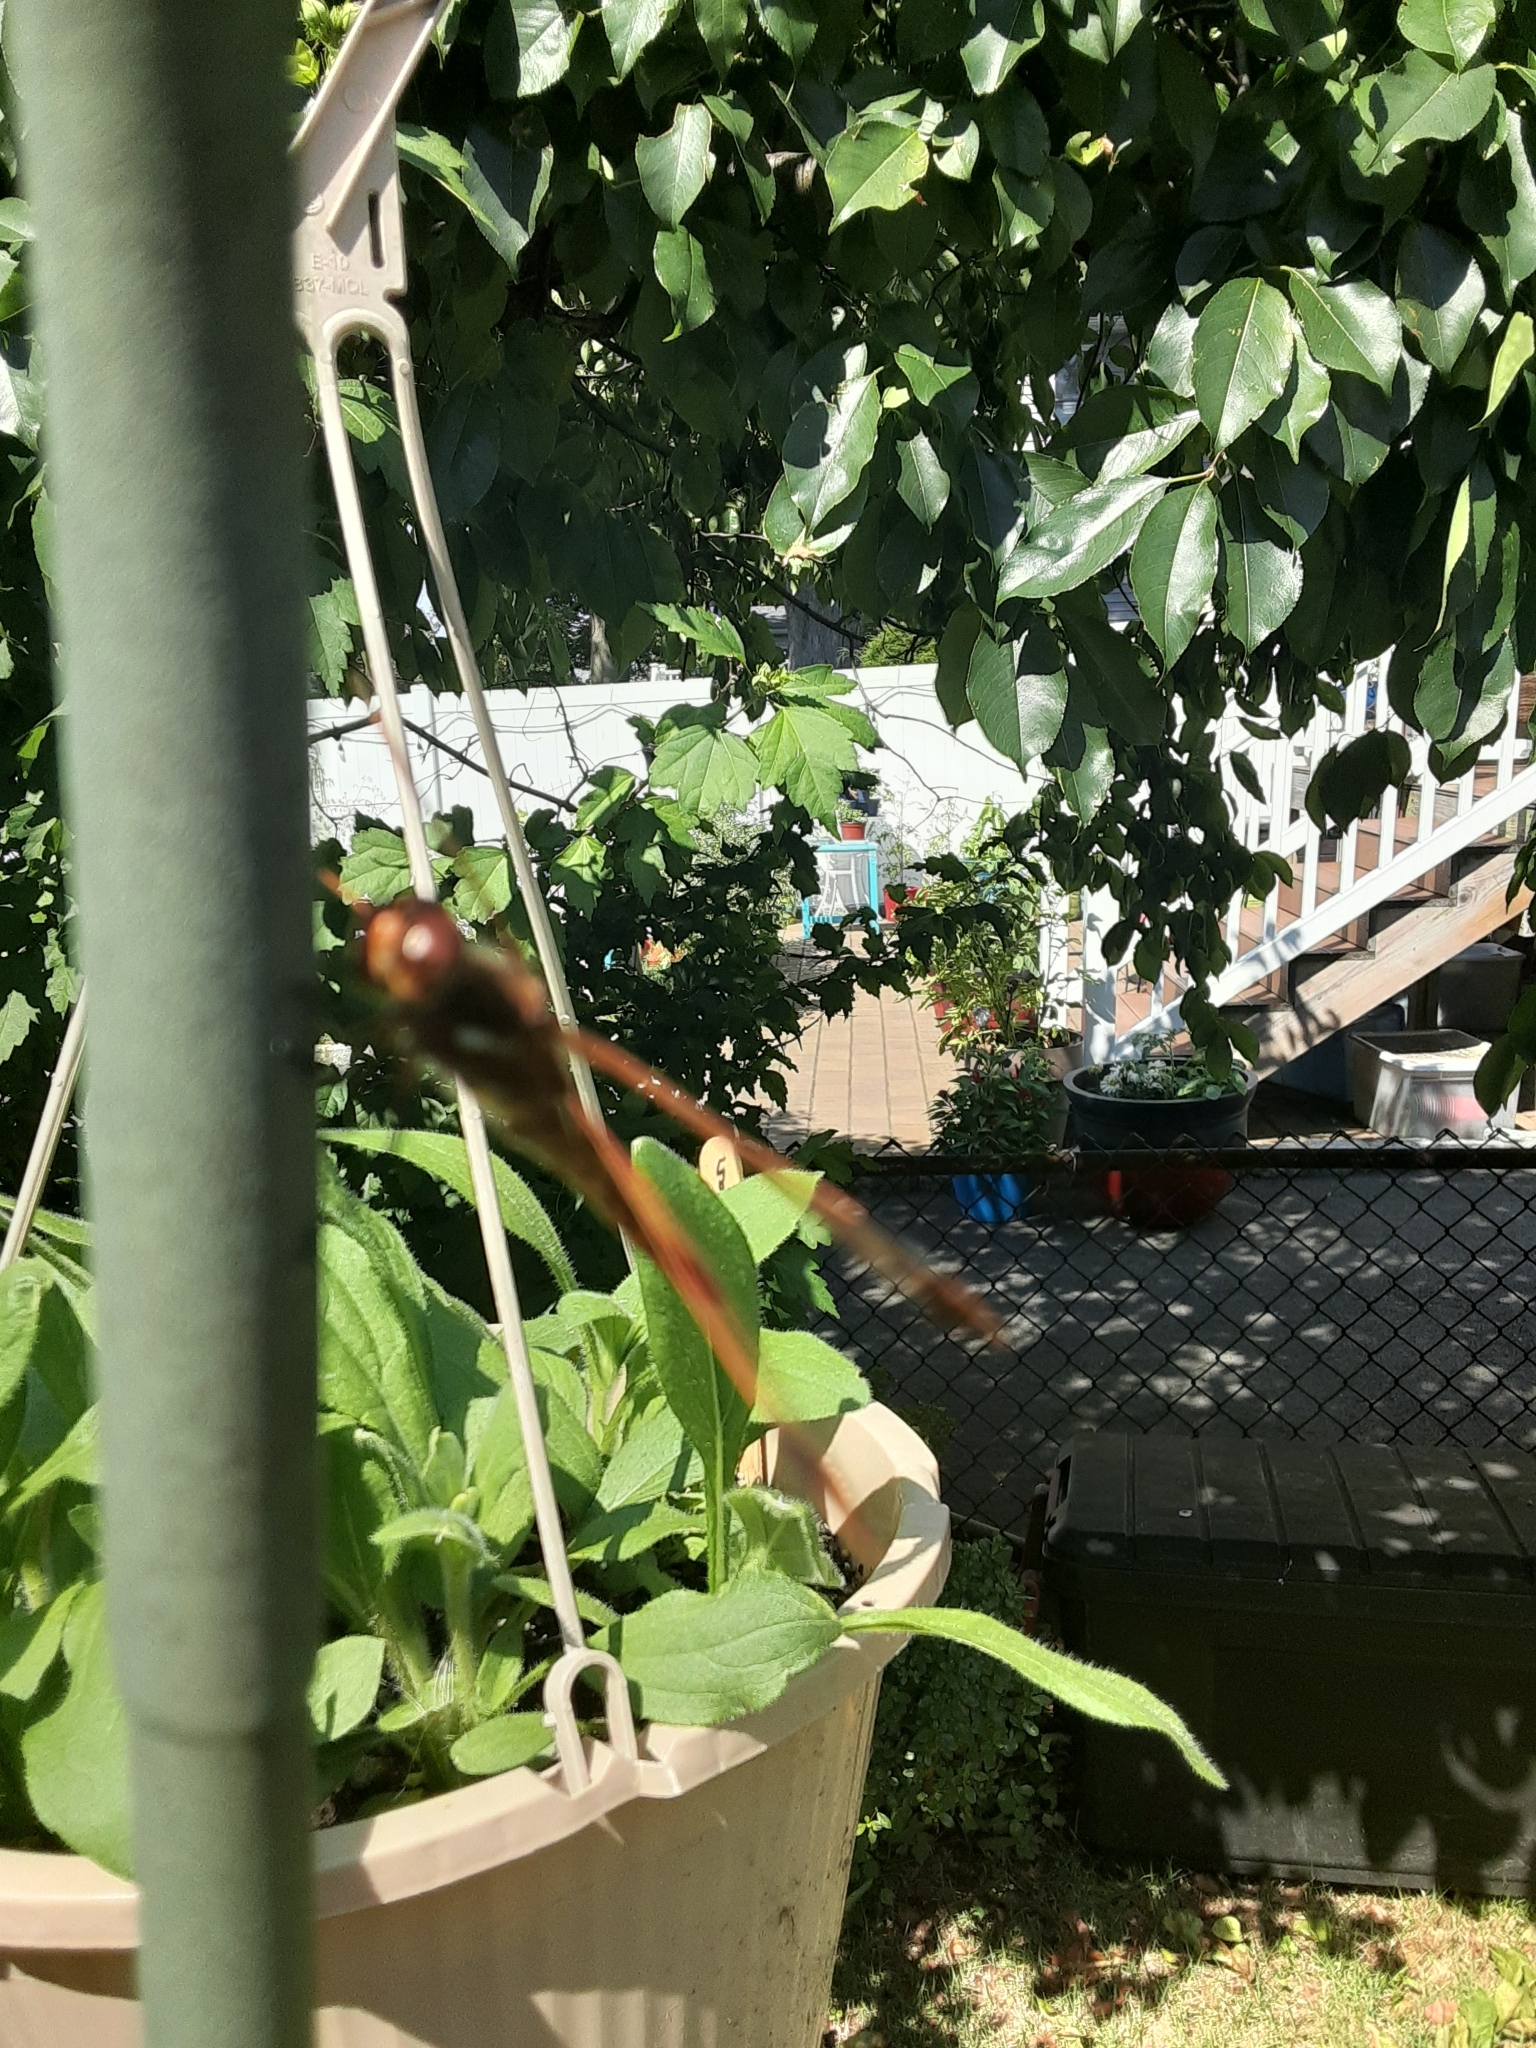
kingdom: Animalia
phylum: Arthropoda
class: Insecta
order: Odonata
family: Libellulidae
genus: Libellula
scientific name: Libellula semifasciata
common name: Painted skimmer
